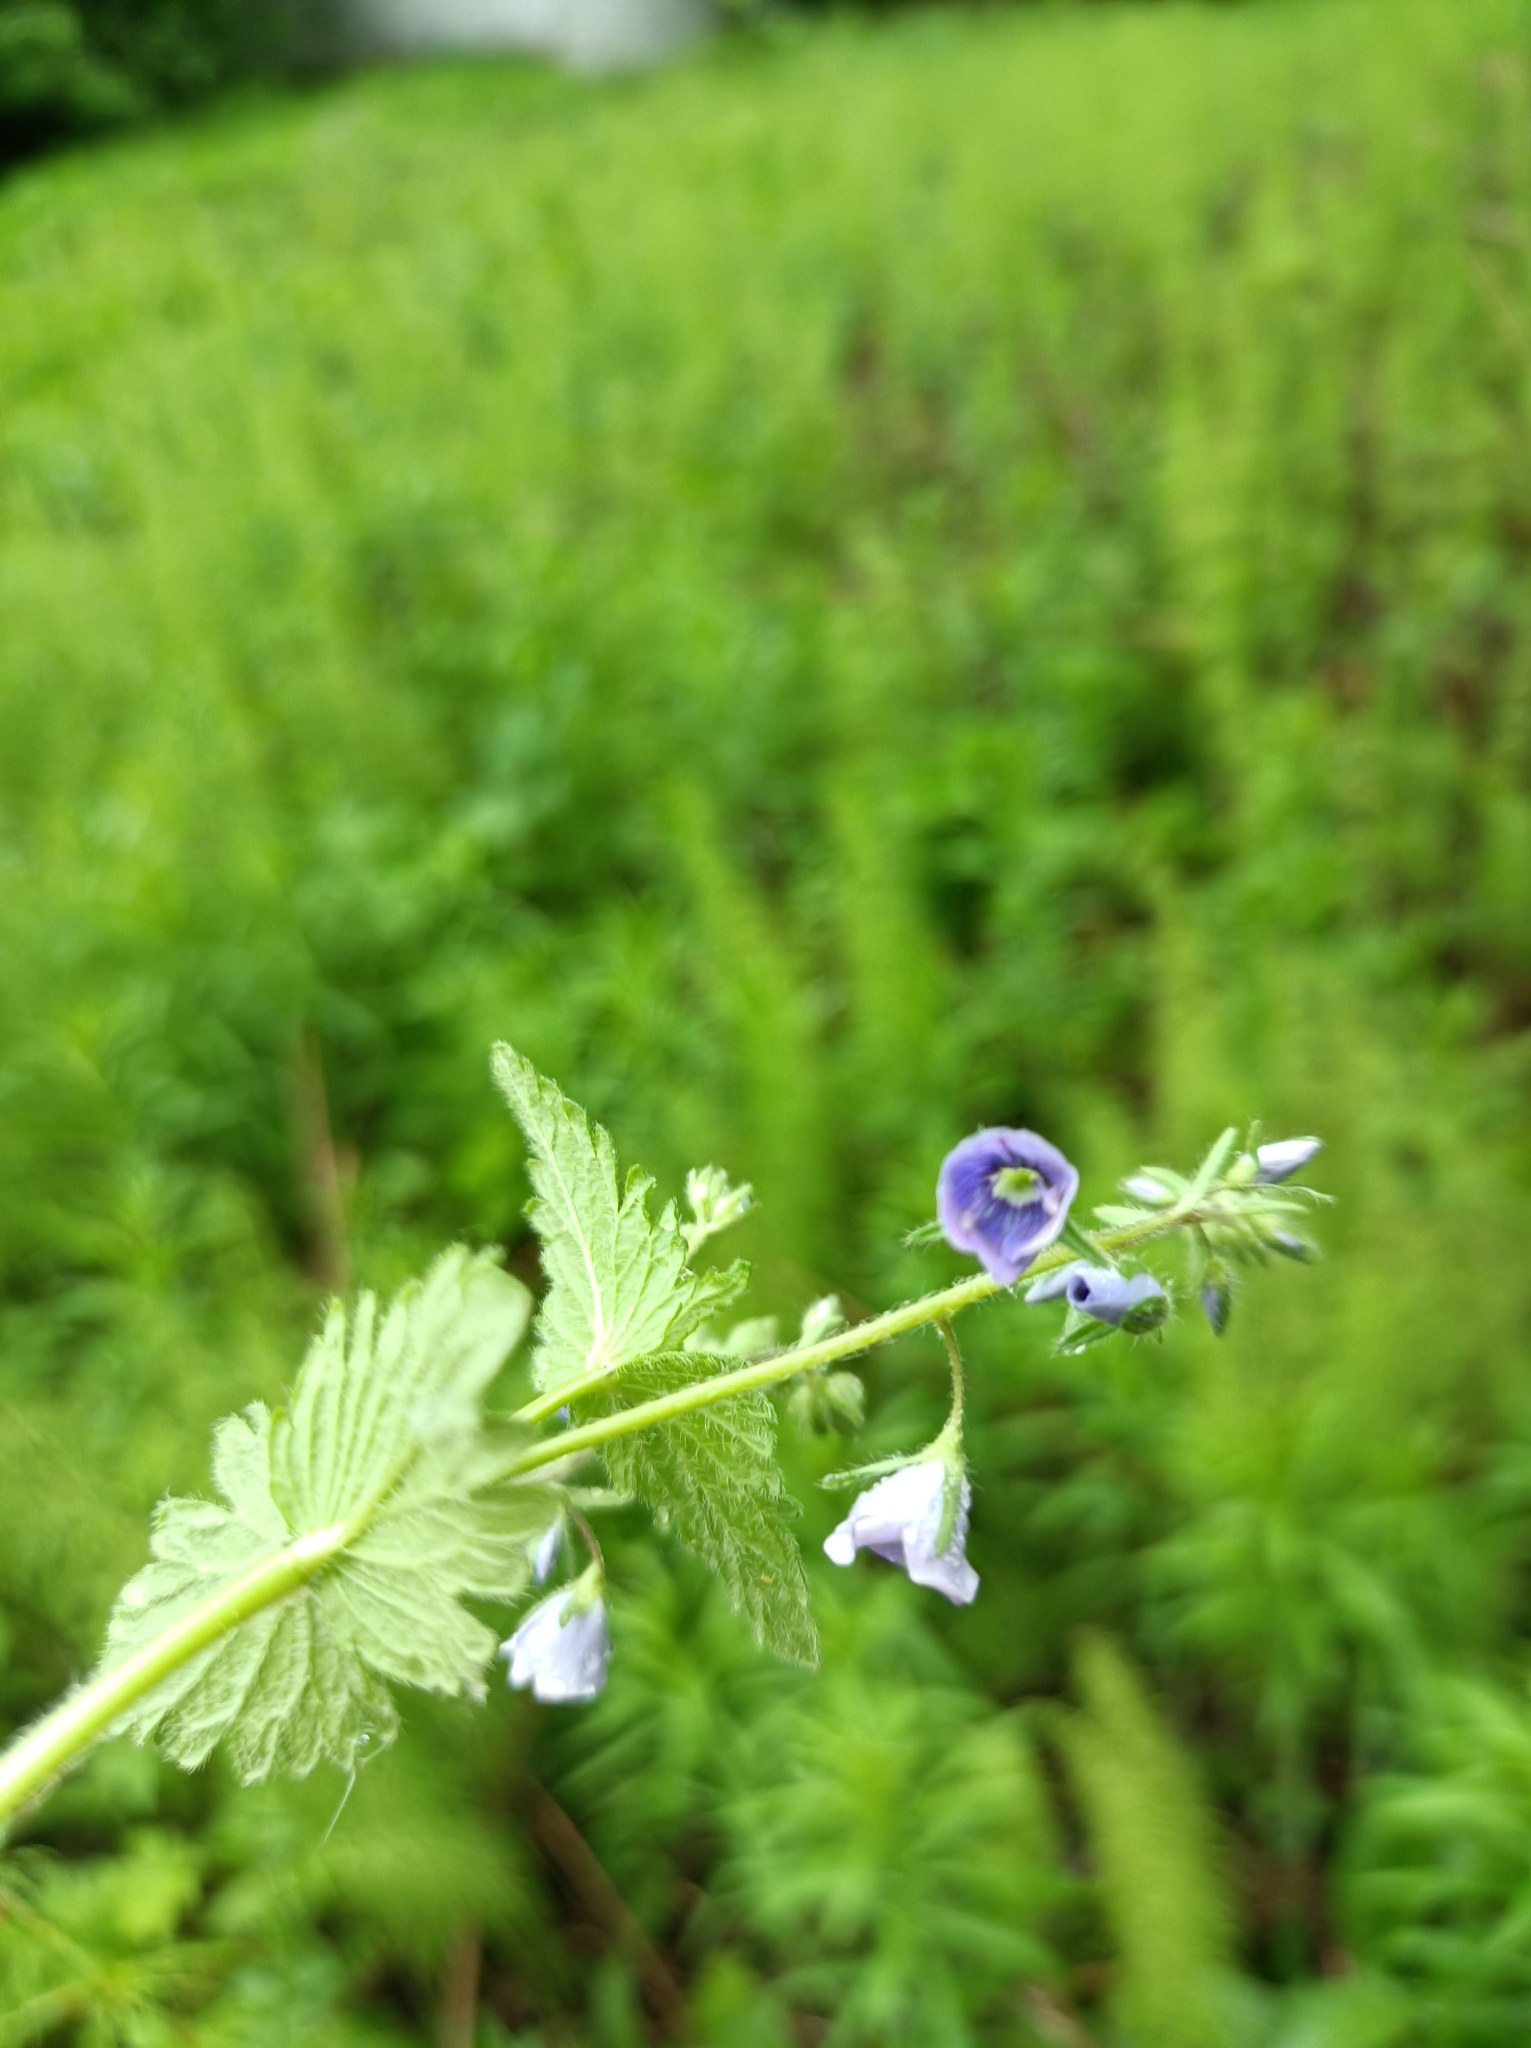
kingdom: Plantae
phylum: Tracheophyta
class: Magnoliopsida
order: Lamiales
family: Plantaginaceae
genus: Veronica
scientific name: Veronica chamaedrys
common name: Germander speedwell
